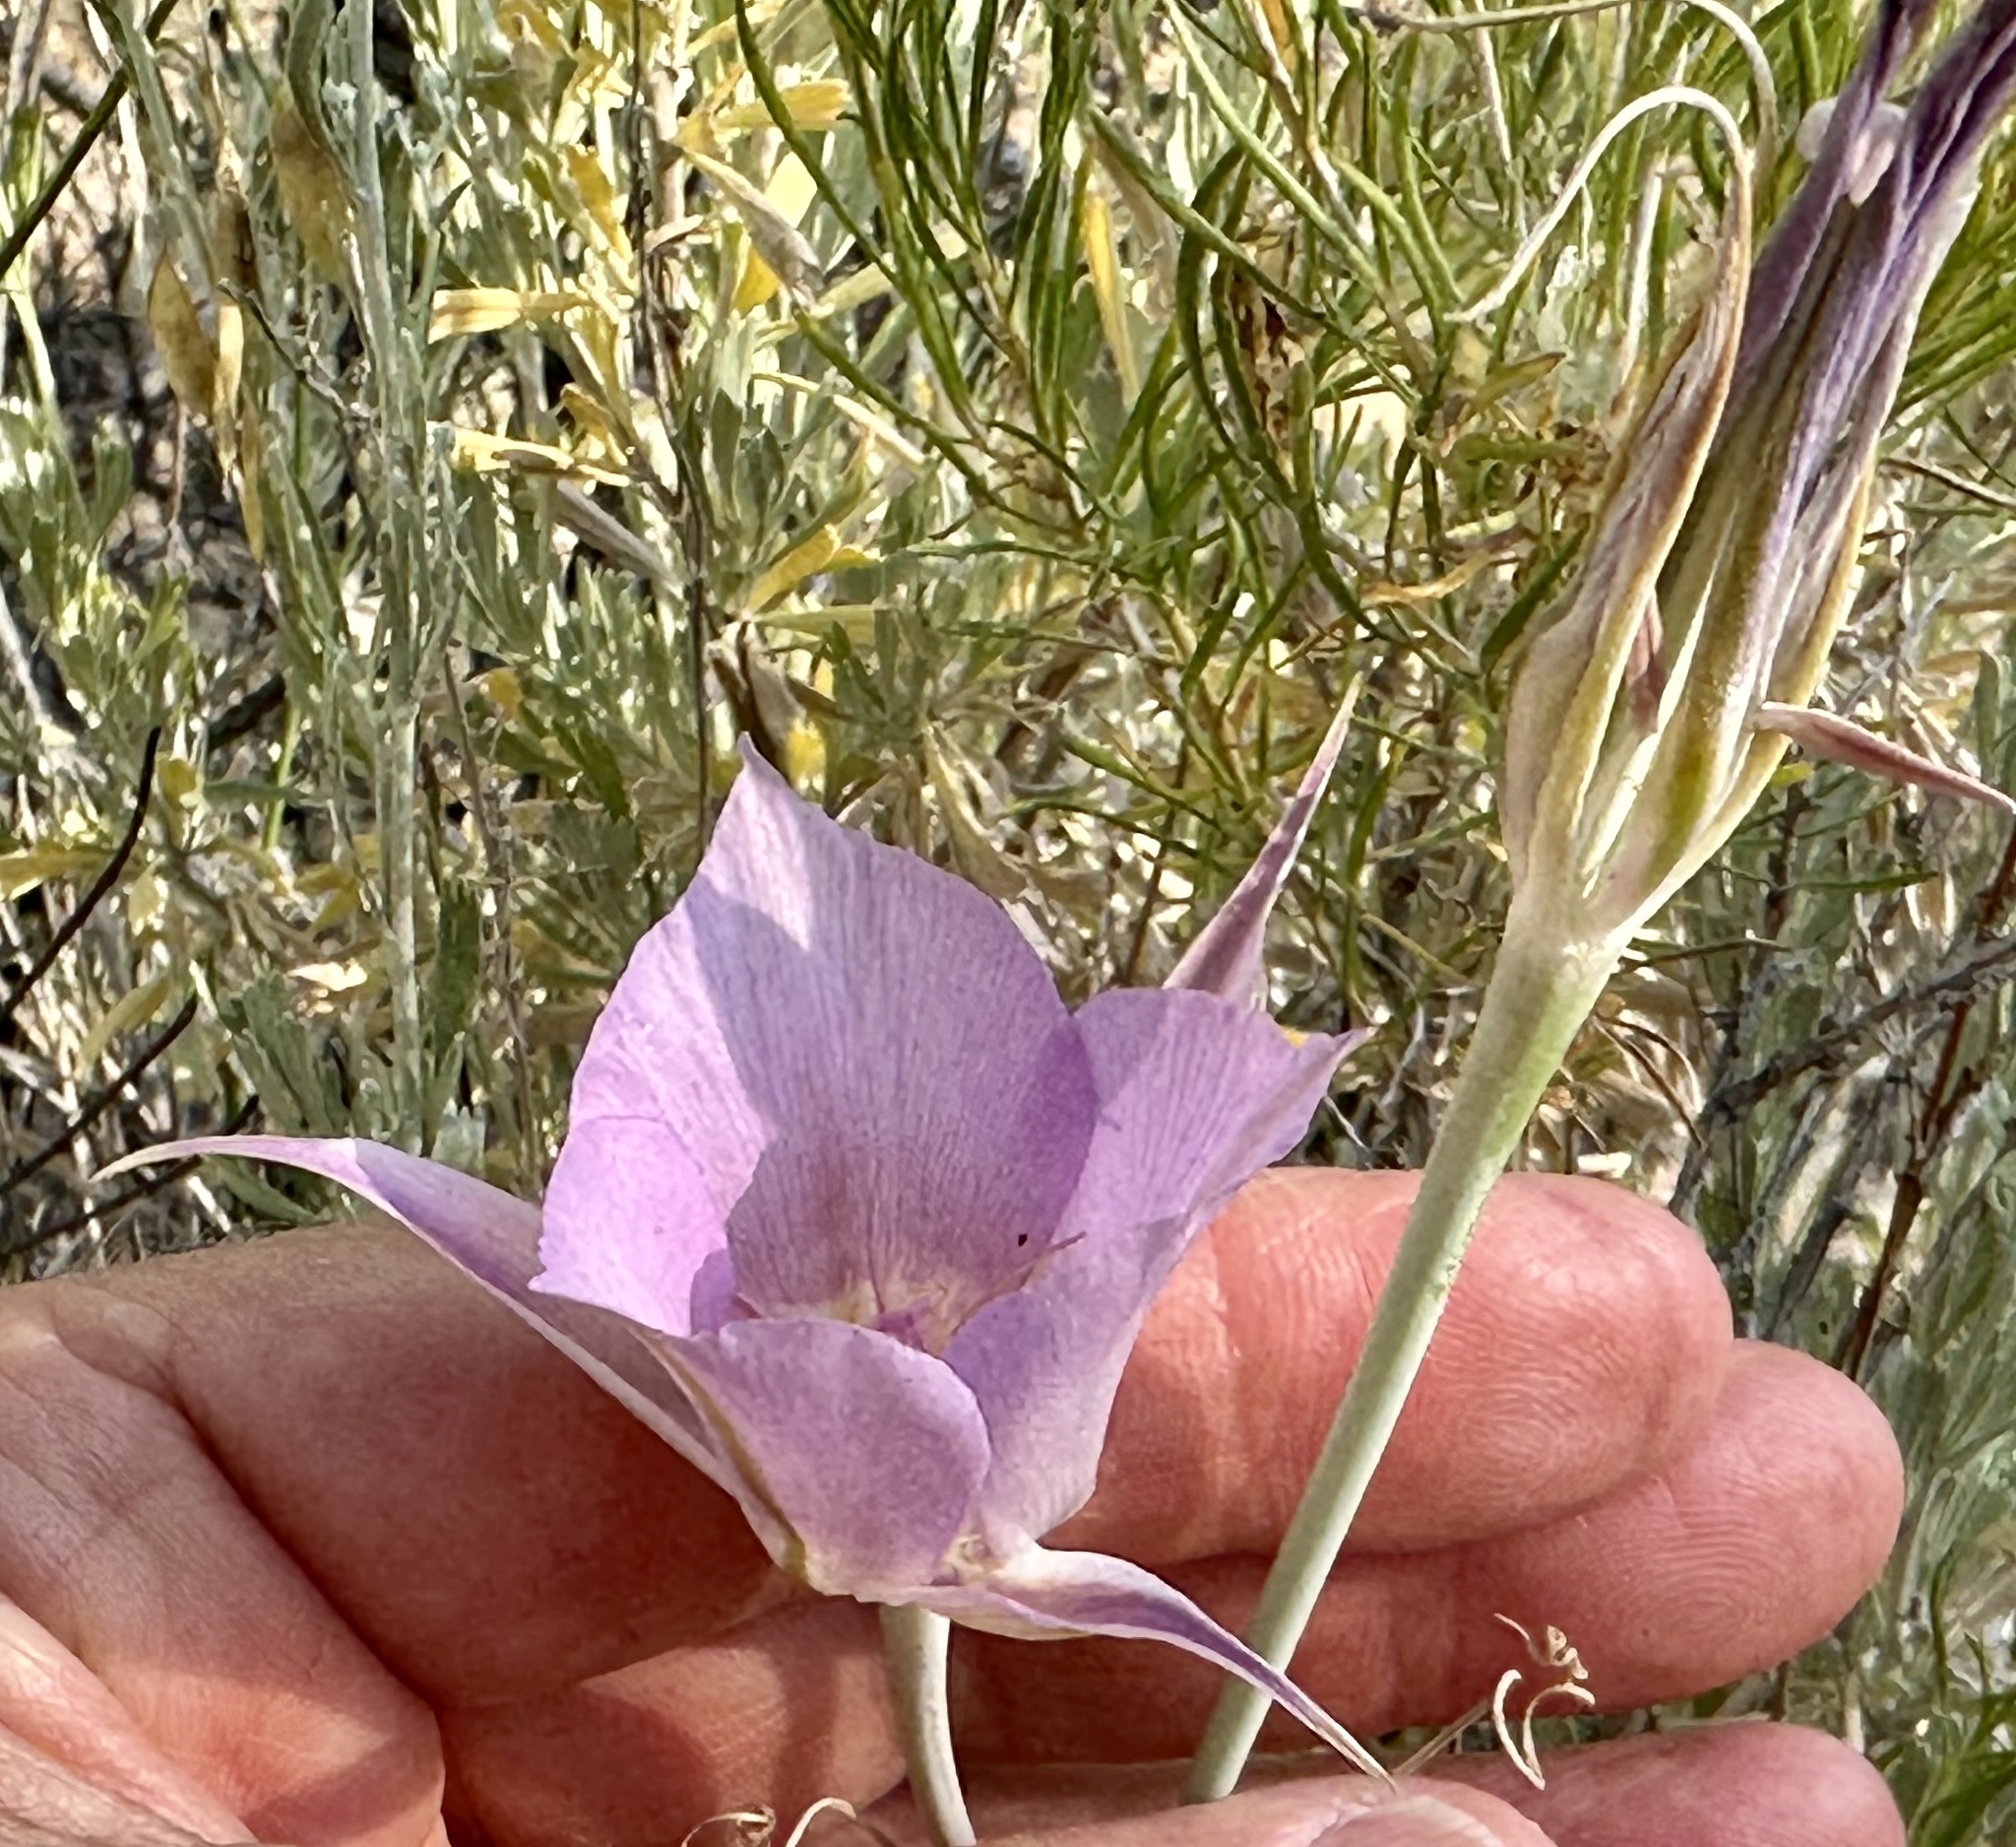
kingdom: Plantae
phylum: Tracheophyta
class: Liliopsida
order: Liliales
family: Liliaceae
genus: Calochortus
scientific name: Calochortus macrocarpus
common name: Green-band mariposa lily
